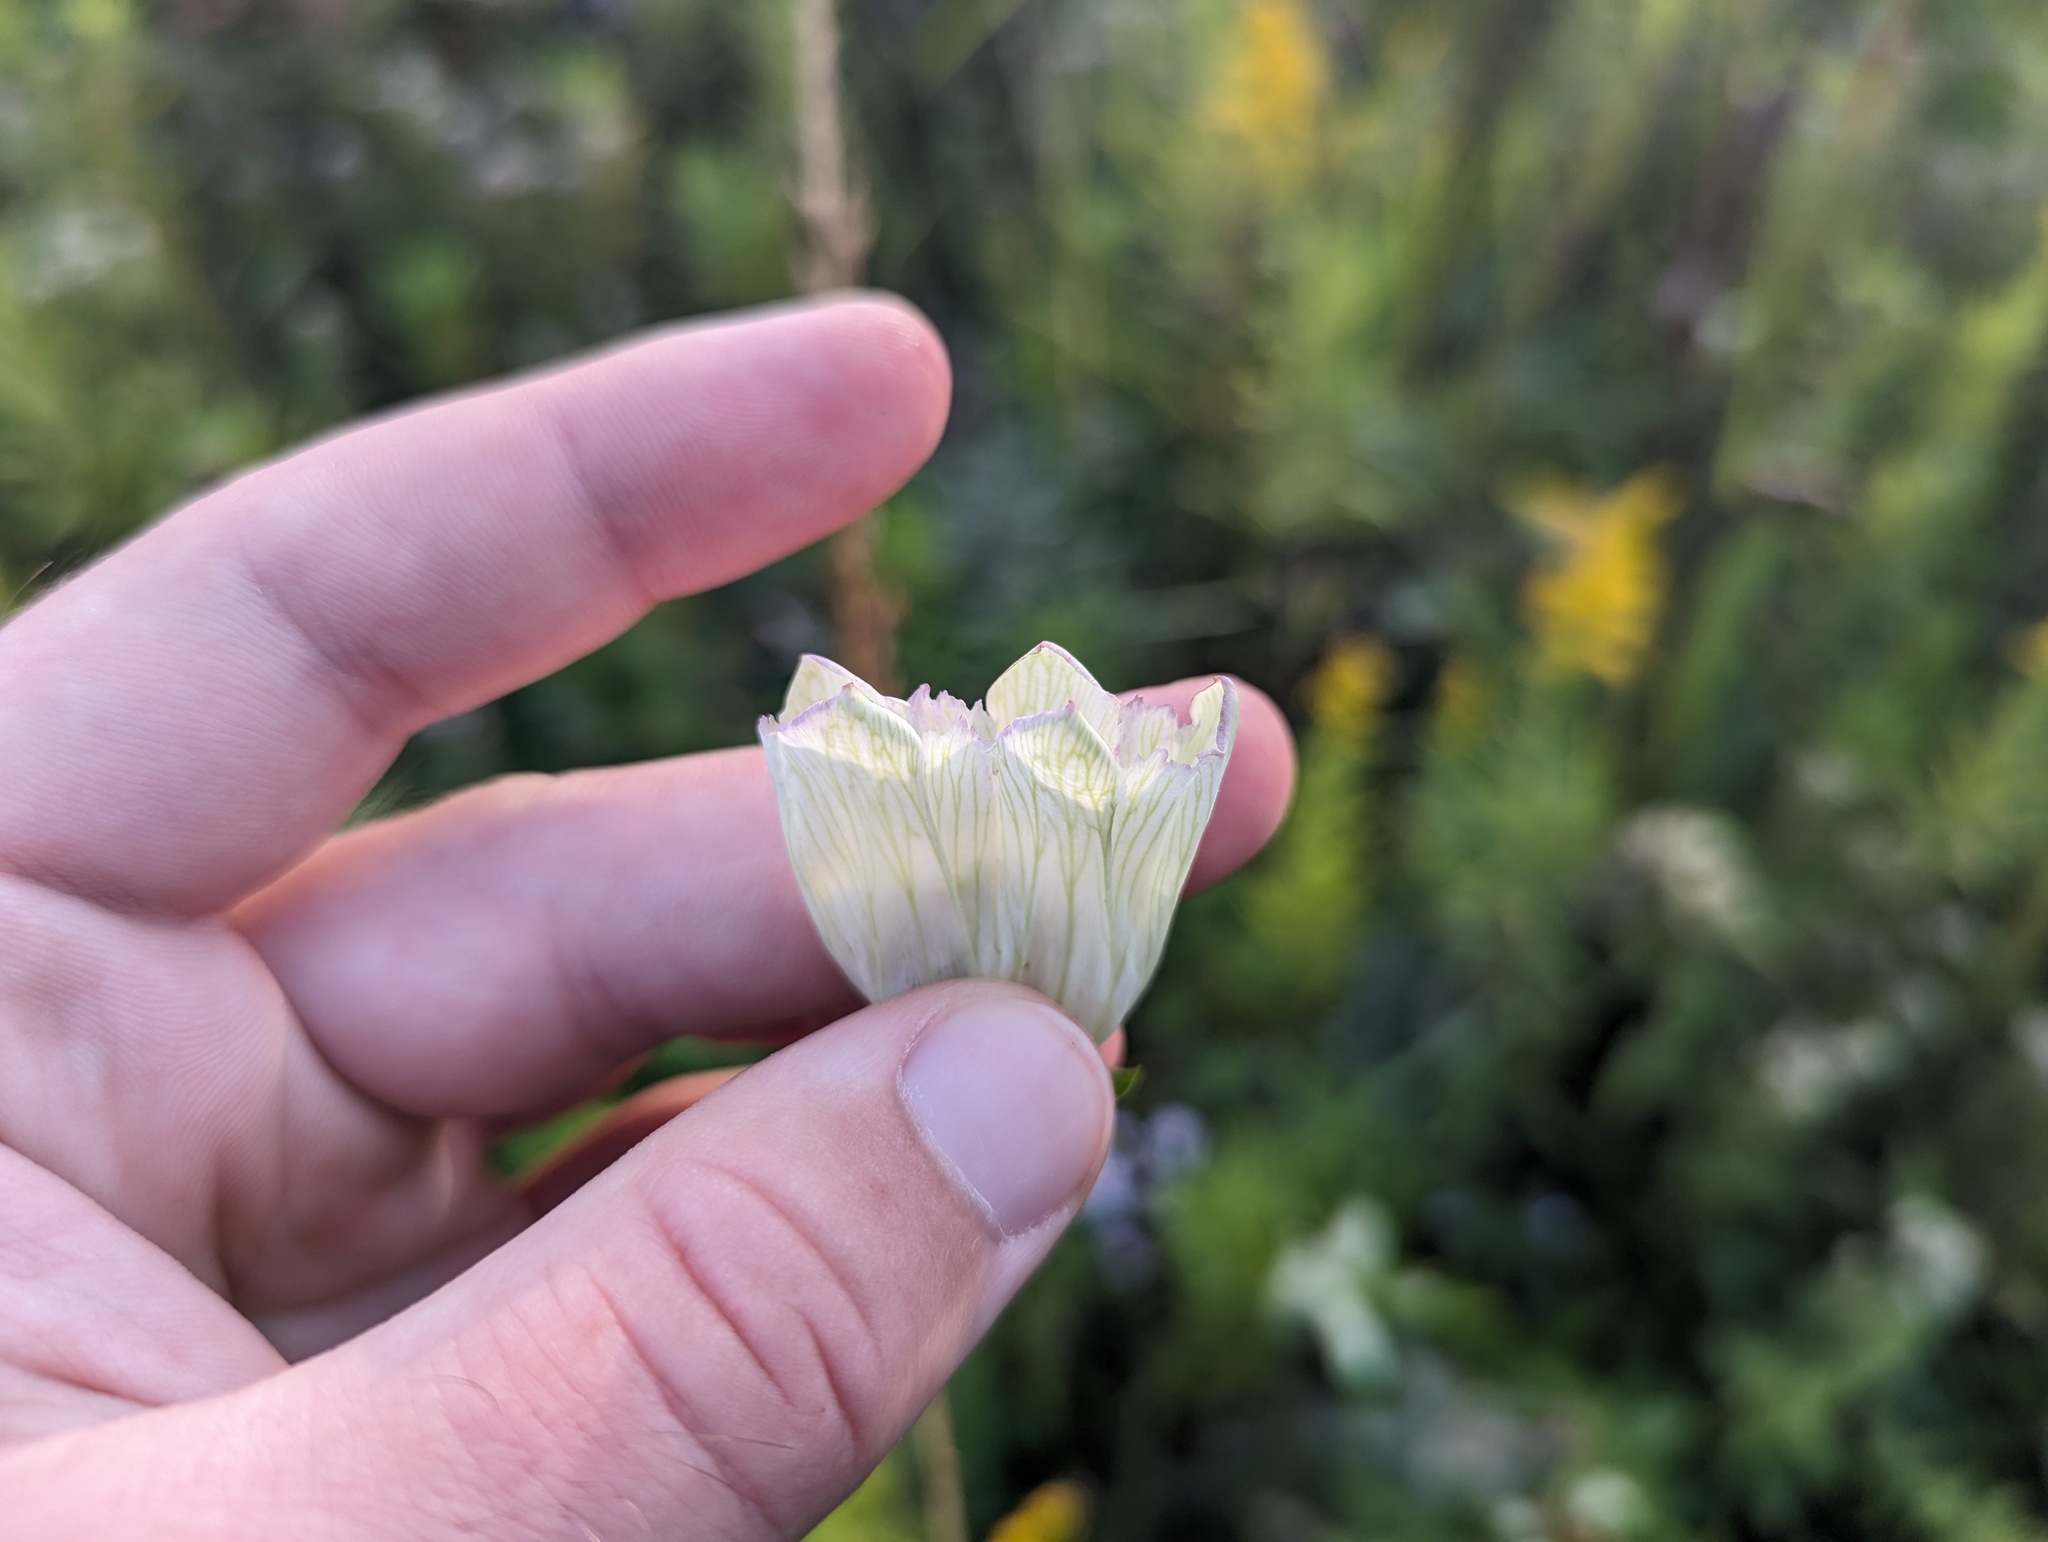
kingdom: Plantae
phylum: Tracheophyta
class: Magnoliopsida
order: Gentianales
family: Gentianaceae
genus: Gentiana
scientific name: Gentiana alba
